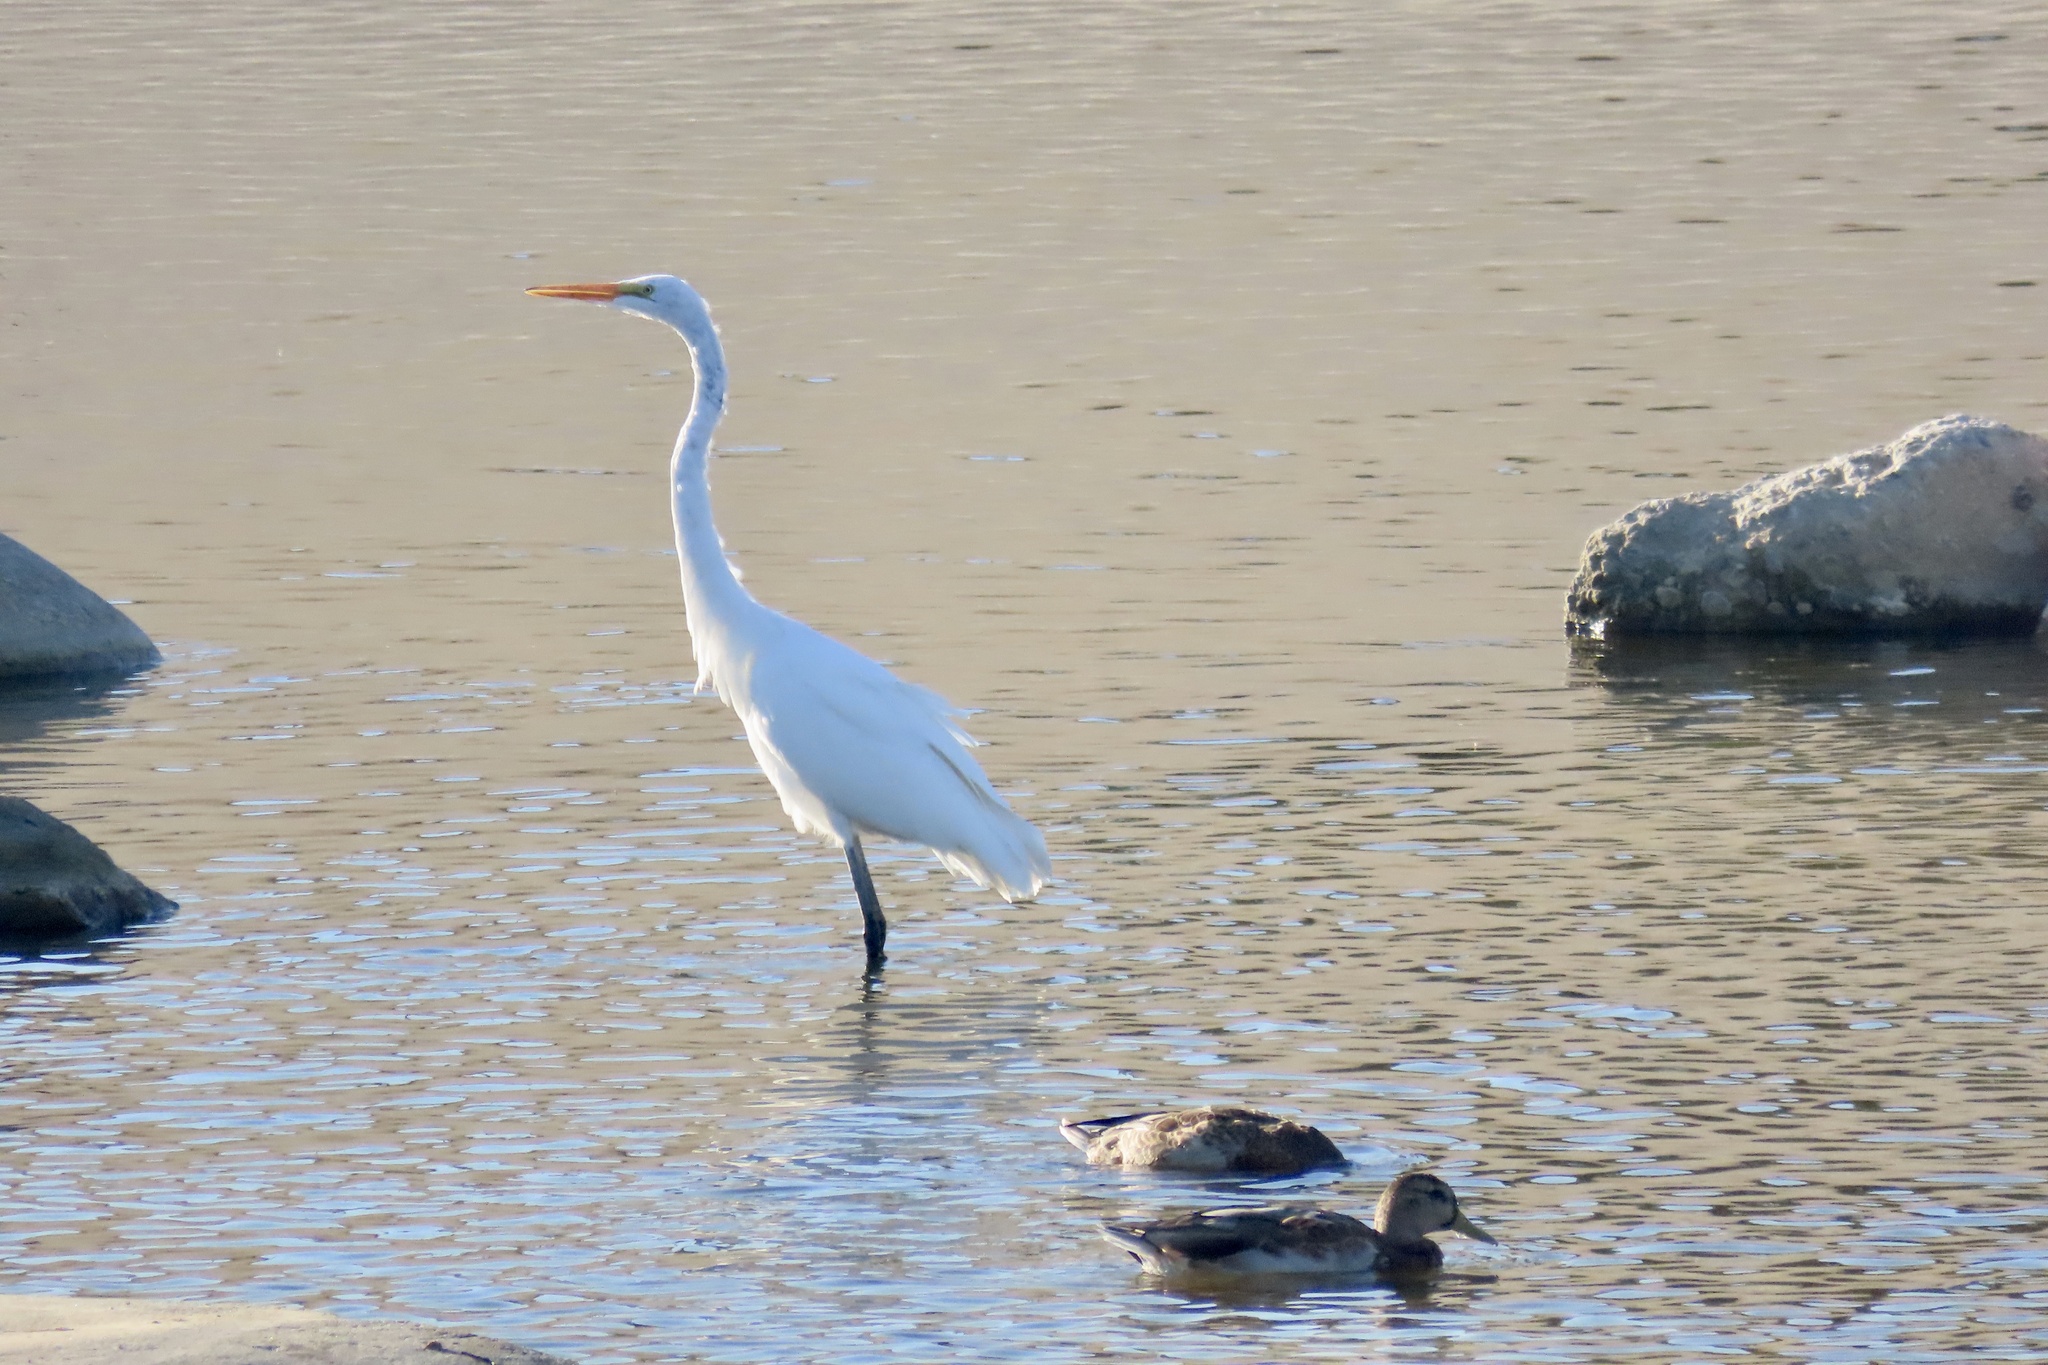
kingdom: Animalia
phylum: Chordata
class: Aves
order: Pelecaniformes
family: Ardeidae
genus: Ardea
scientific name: Ardea alba
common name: Great egret
